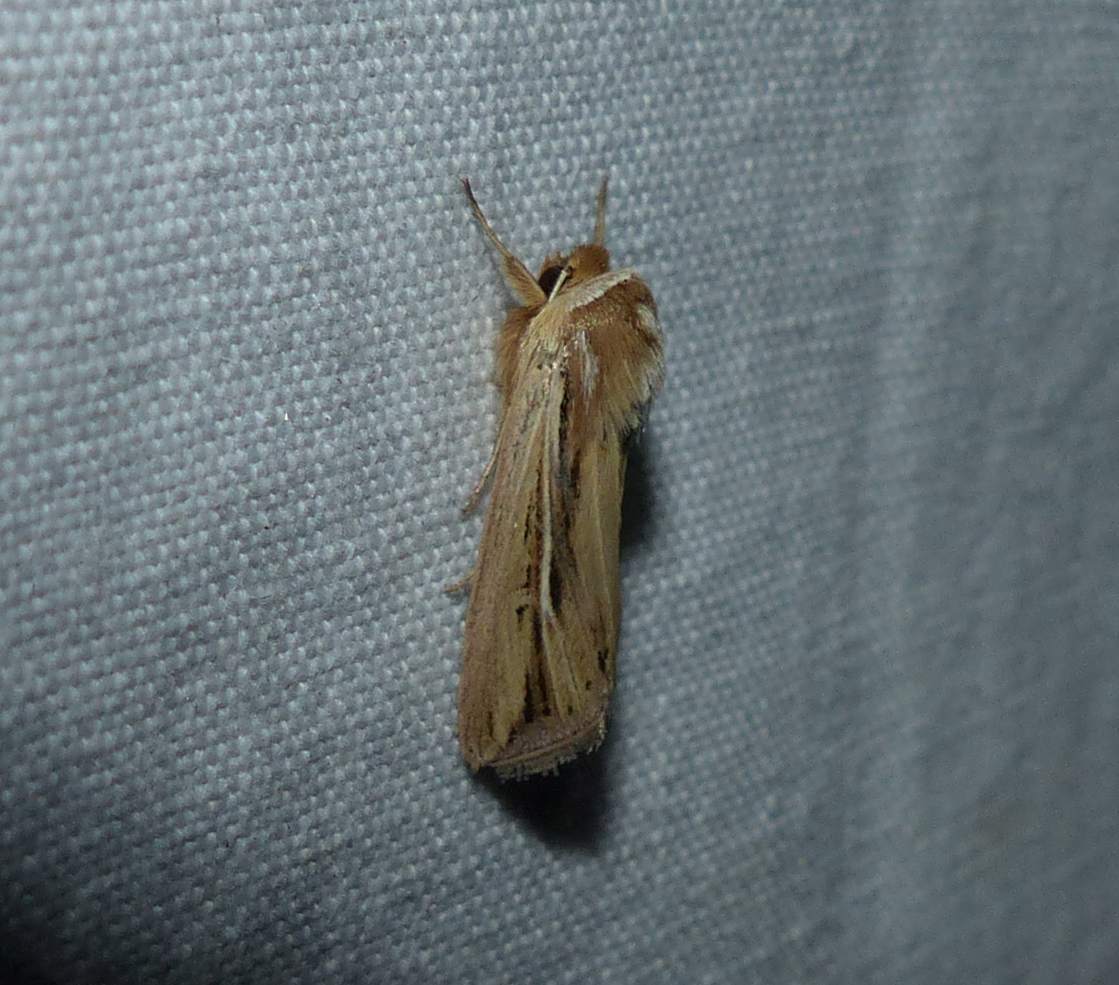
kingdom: Animalia
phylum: Arthropoda
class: Insecta
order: Lepidoptera
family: Noctuidae
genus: Dargida
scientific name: Dargida diffusa
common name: Wheat head armyworm
